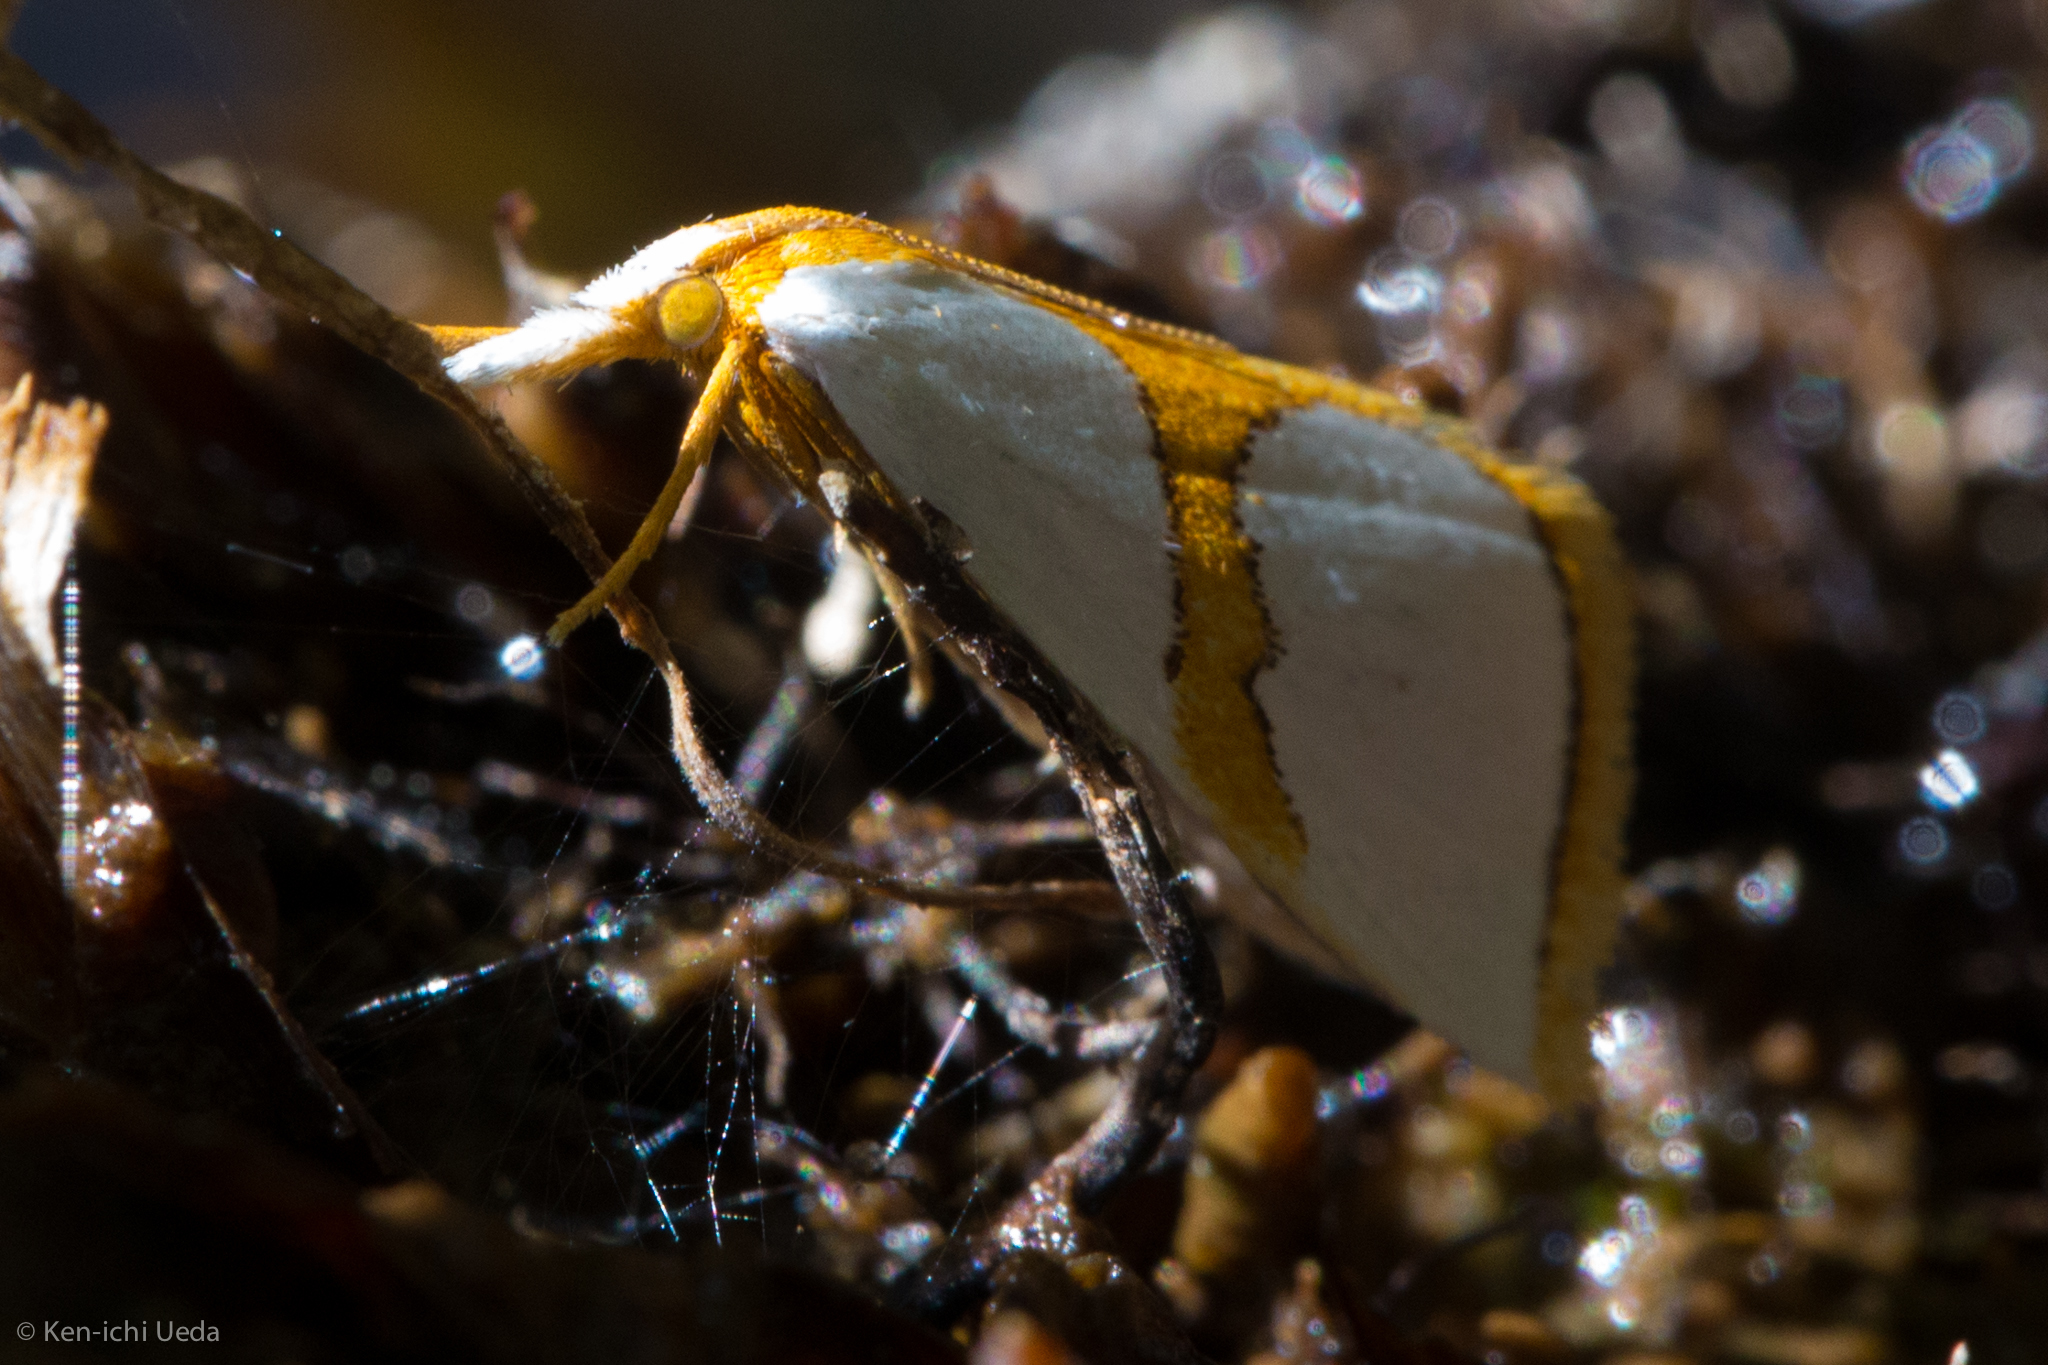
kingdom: Animalia
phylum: Arthropoda
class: Insecta
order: Lepidoptera
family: Crambidae
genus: Argyria
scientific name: Argyria auratella
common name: Curve-lined argyria moth
